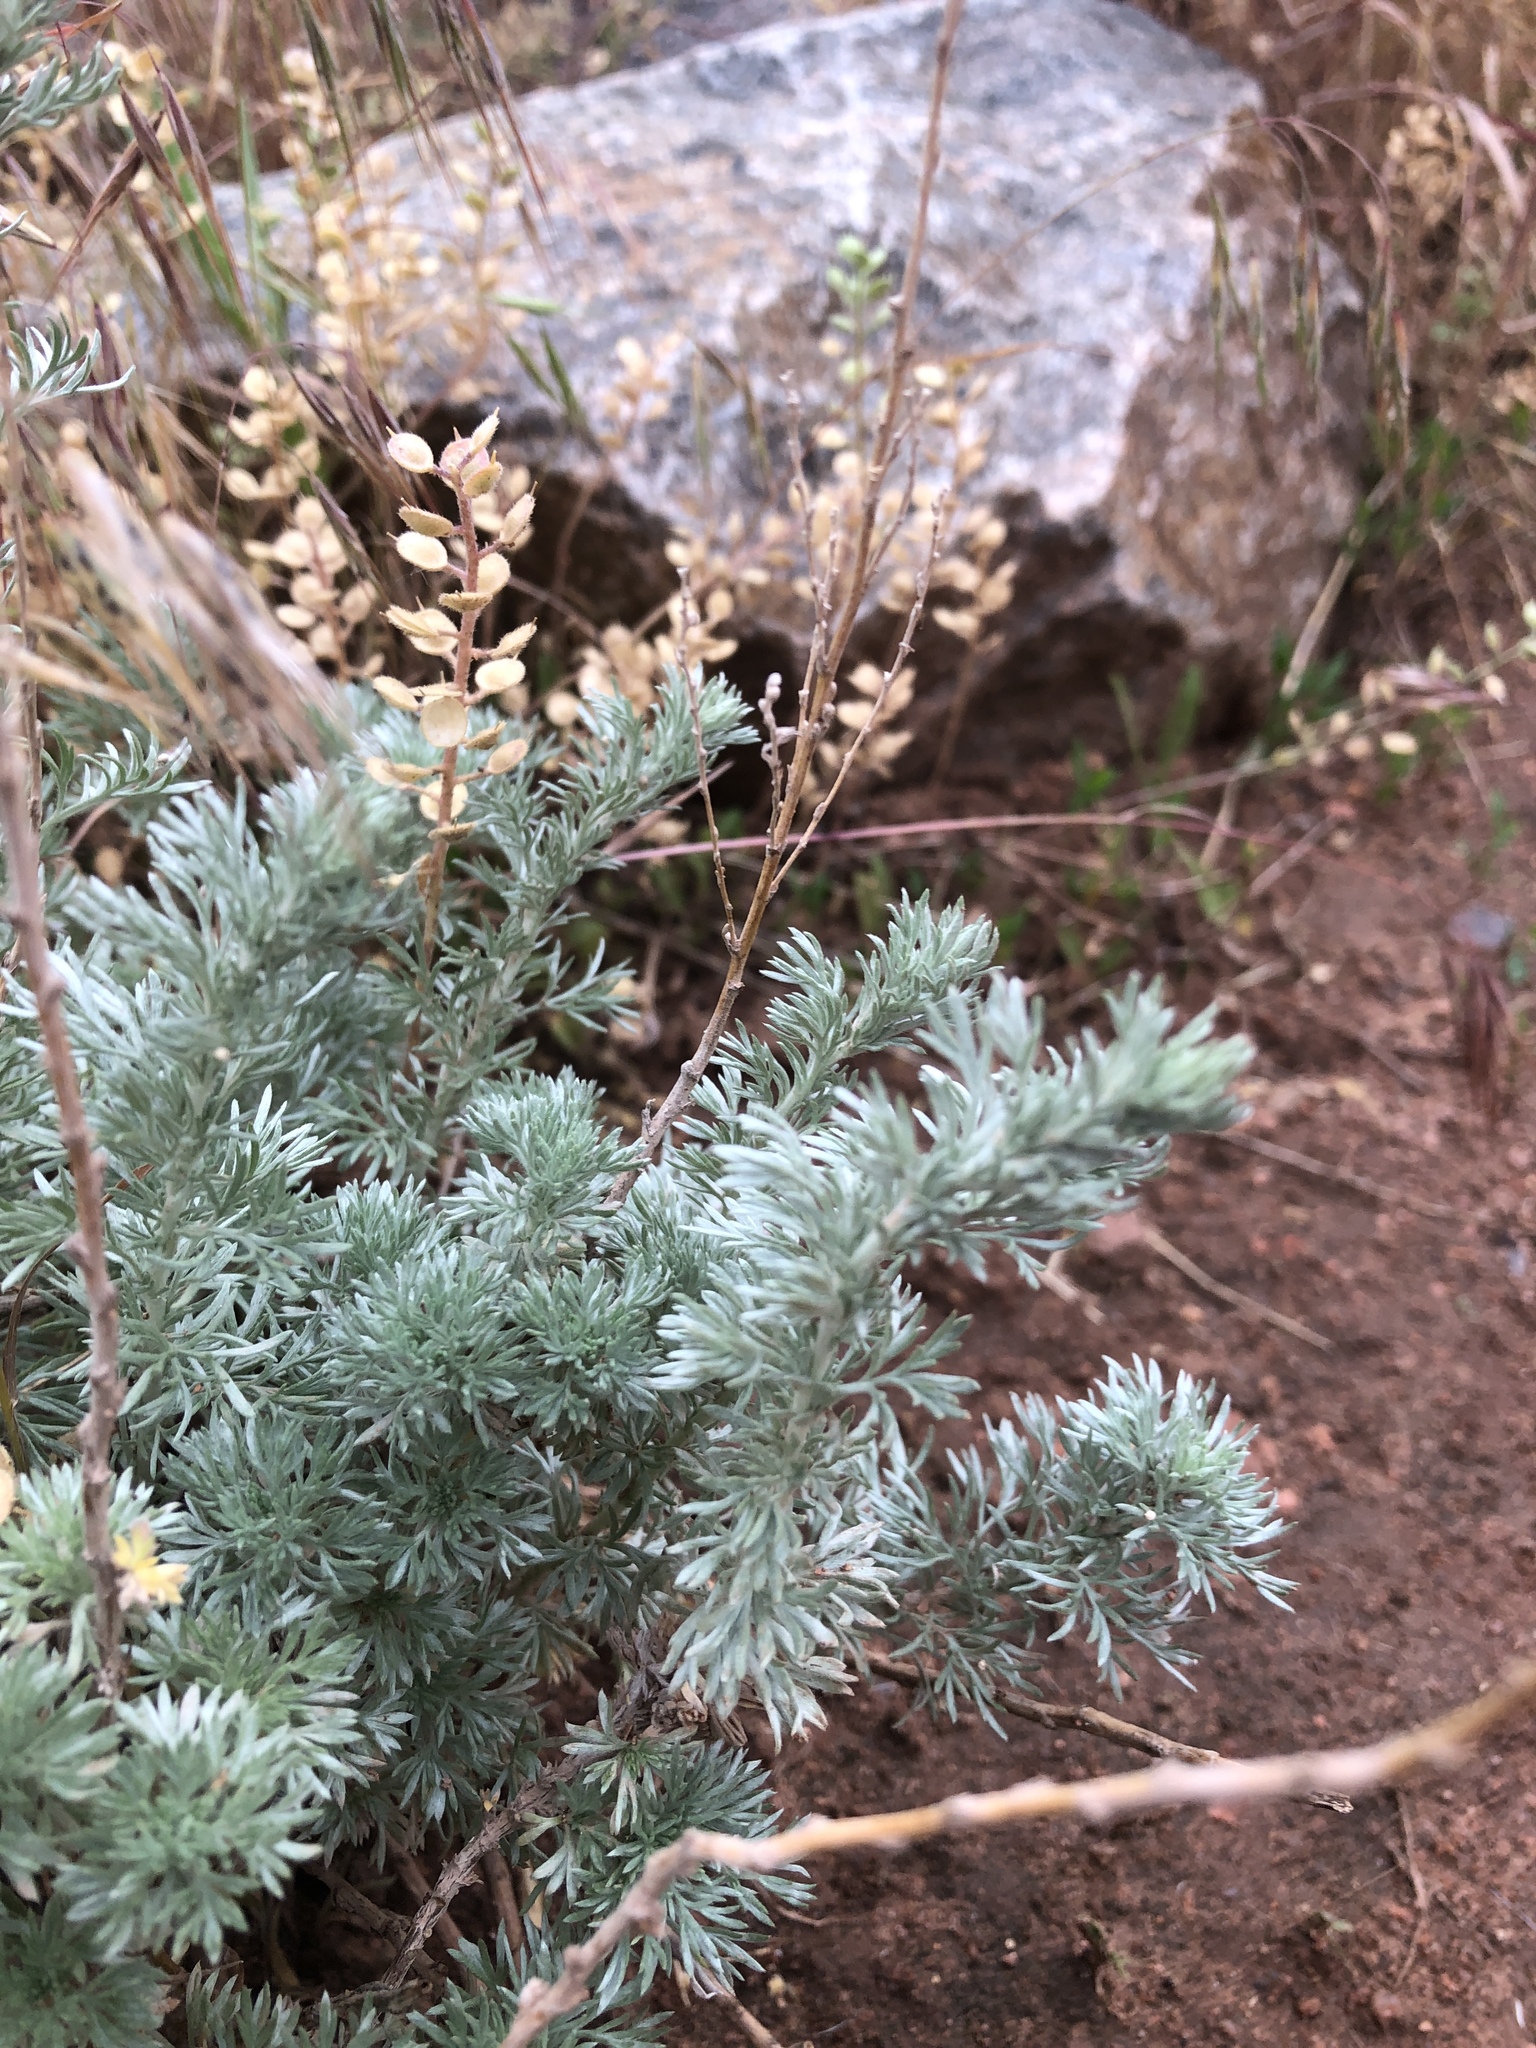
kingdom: Plantae
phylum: Tracheophyta
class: Magnoliopsida
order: Asterales
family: Asteraceae
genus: Artemisia
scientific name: Artemisia frigida
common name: Prairie sagewort
